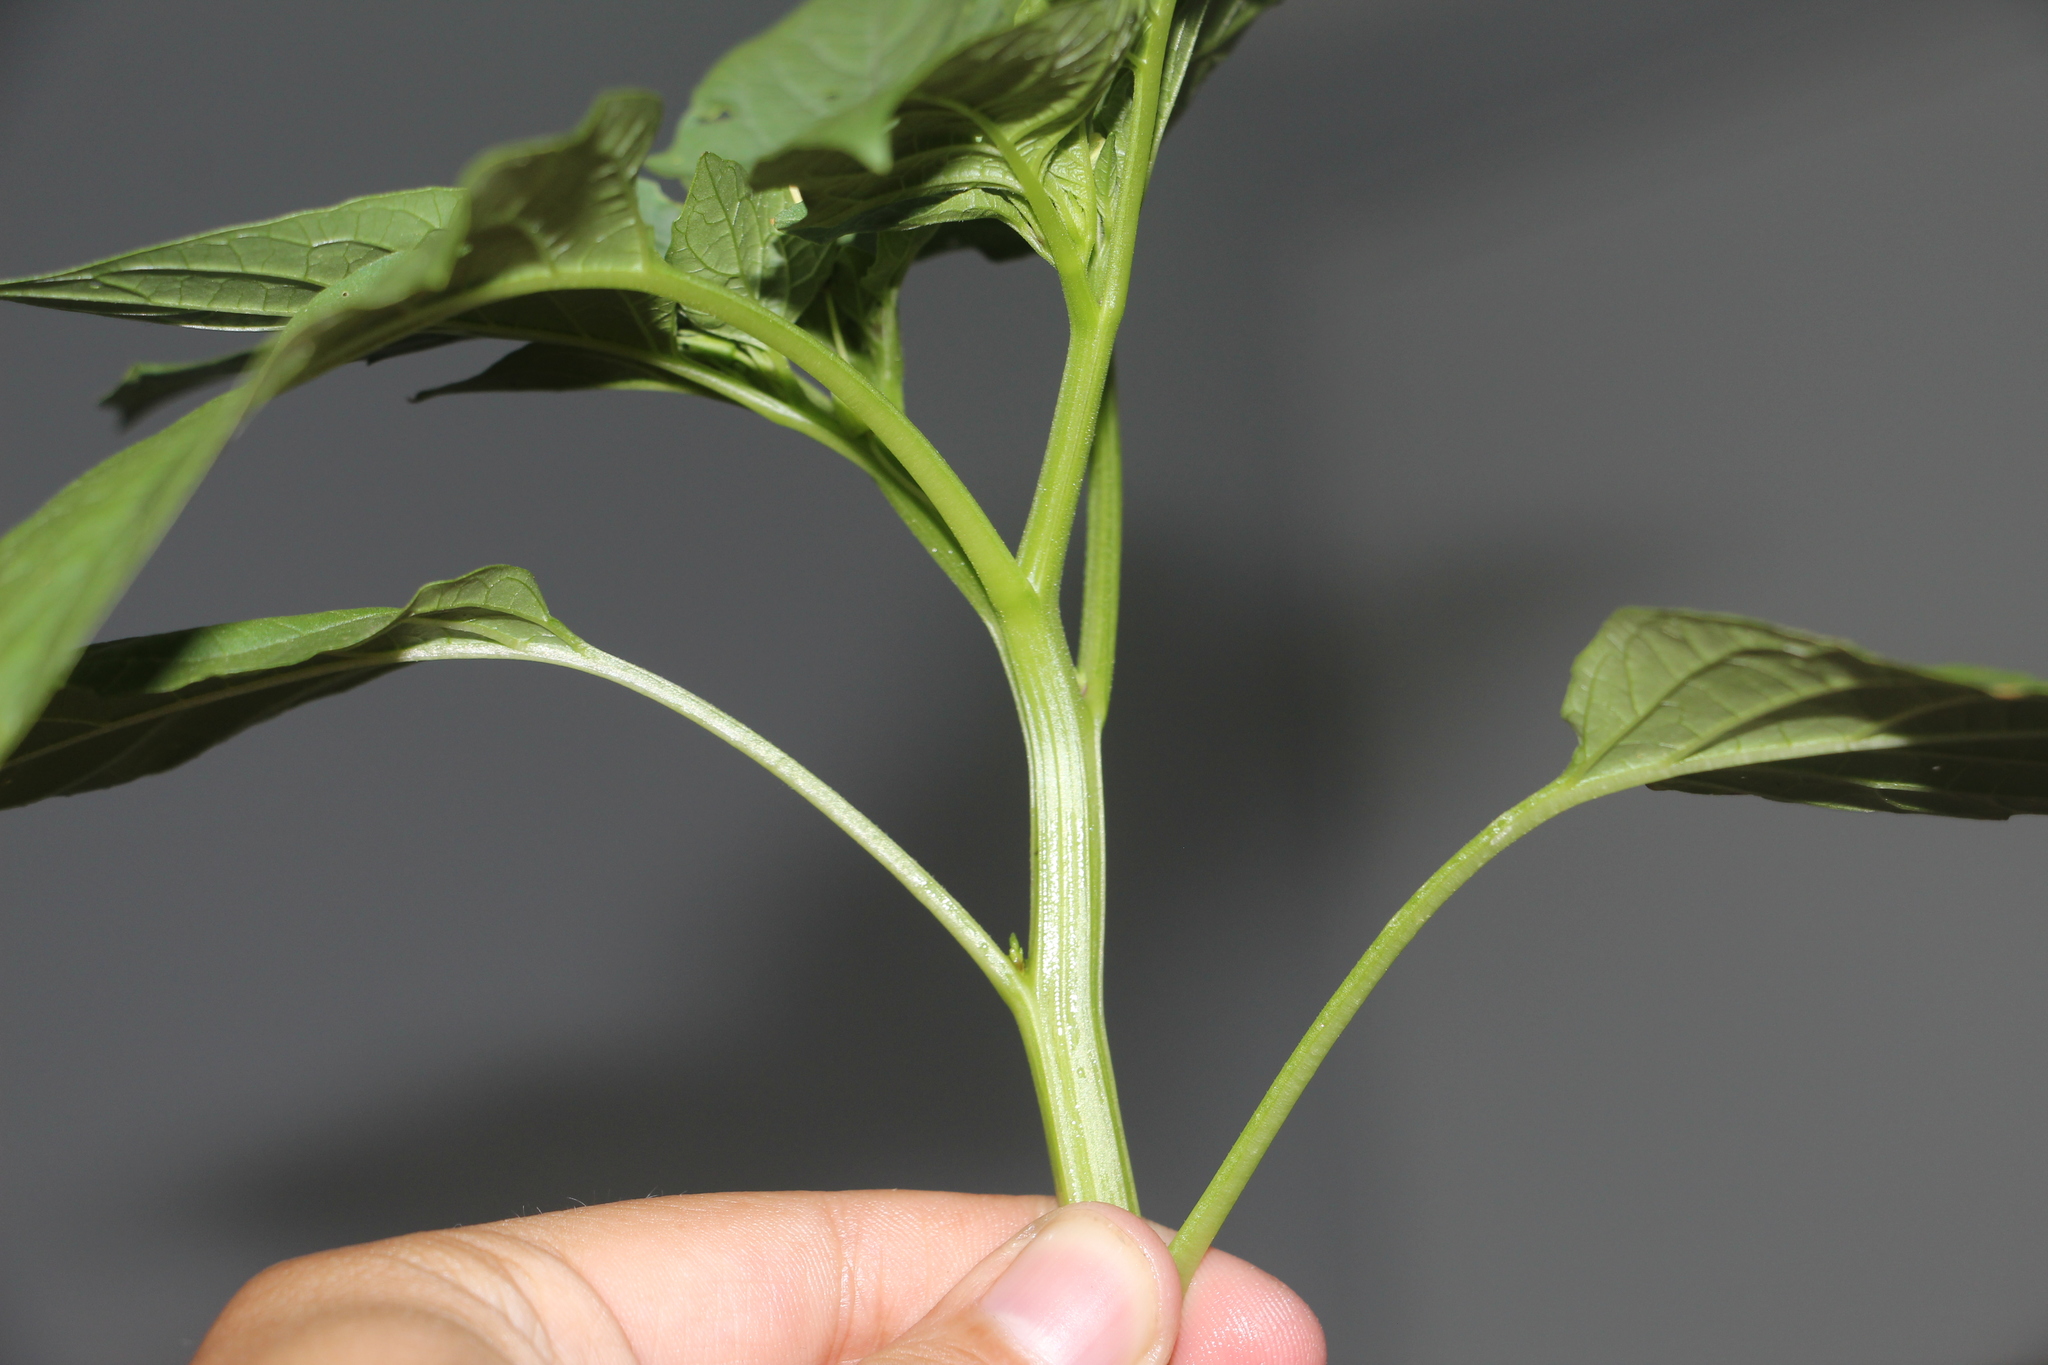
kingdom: Plantae
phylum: Tracheophyta
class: Magnoliopsida
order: Solanales
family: Solanaceae
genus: Physalis
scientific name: Physalis angulata
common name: Angular winter-cherry
